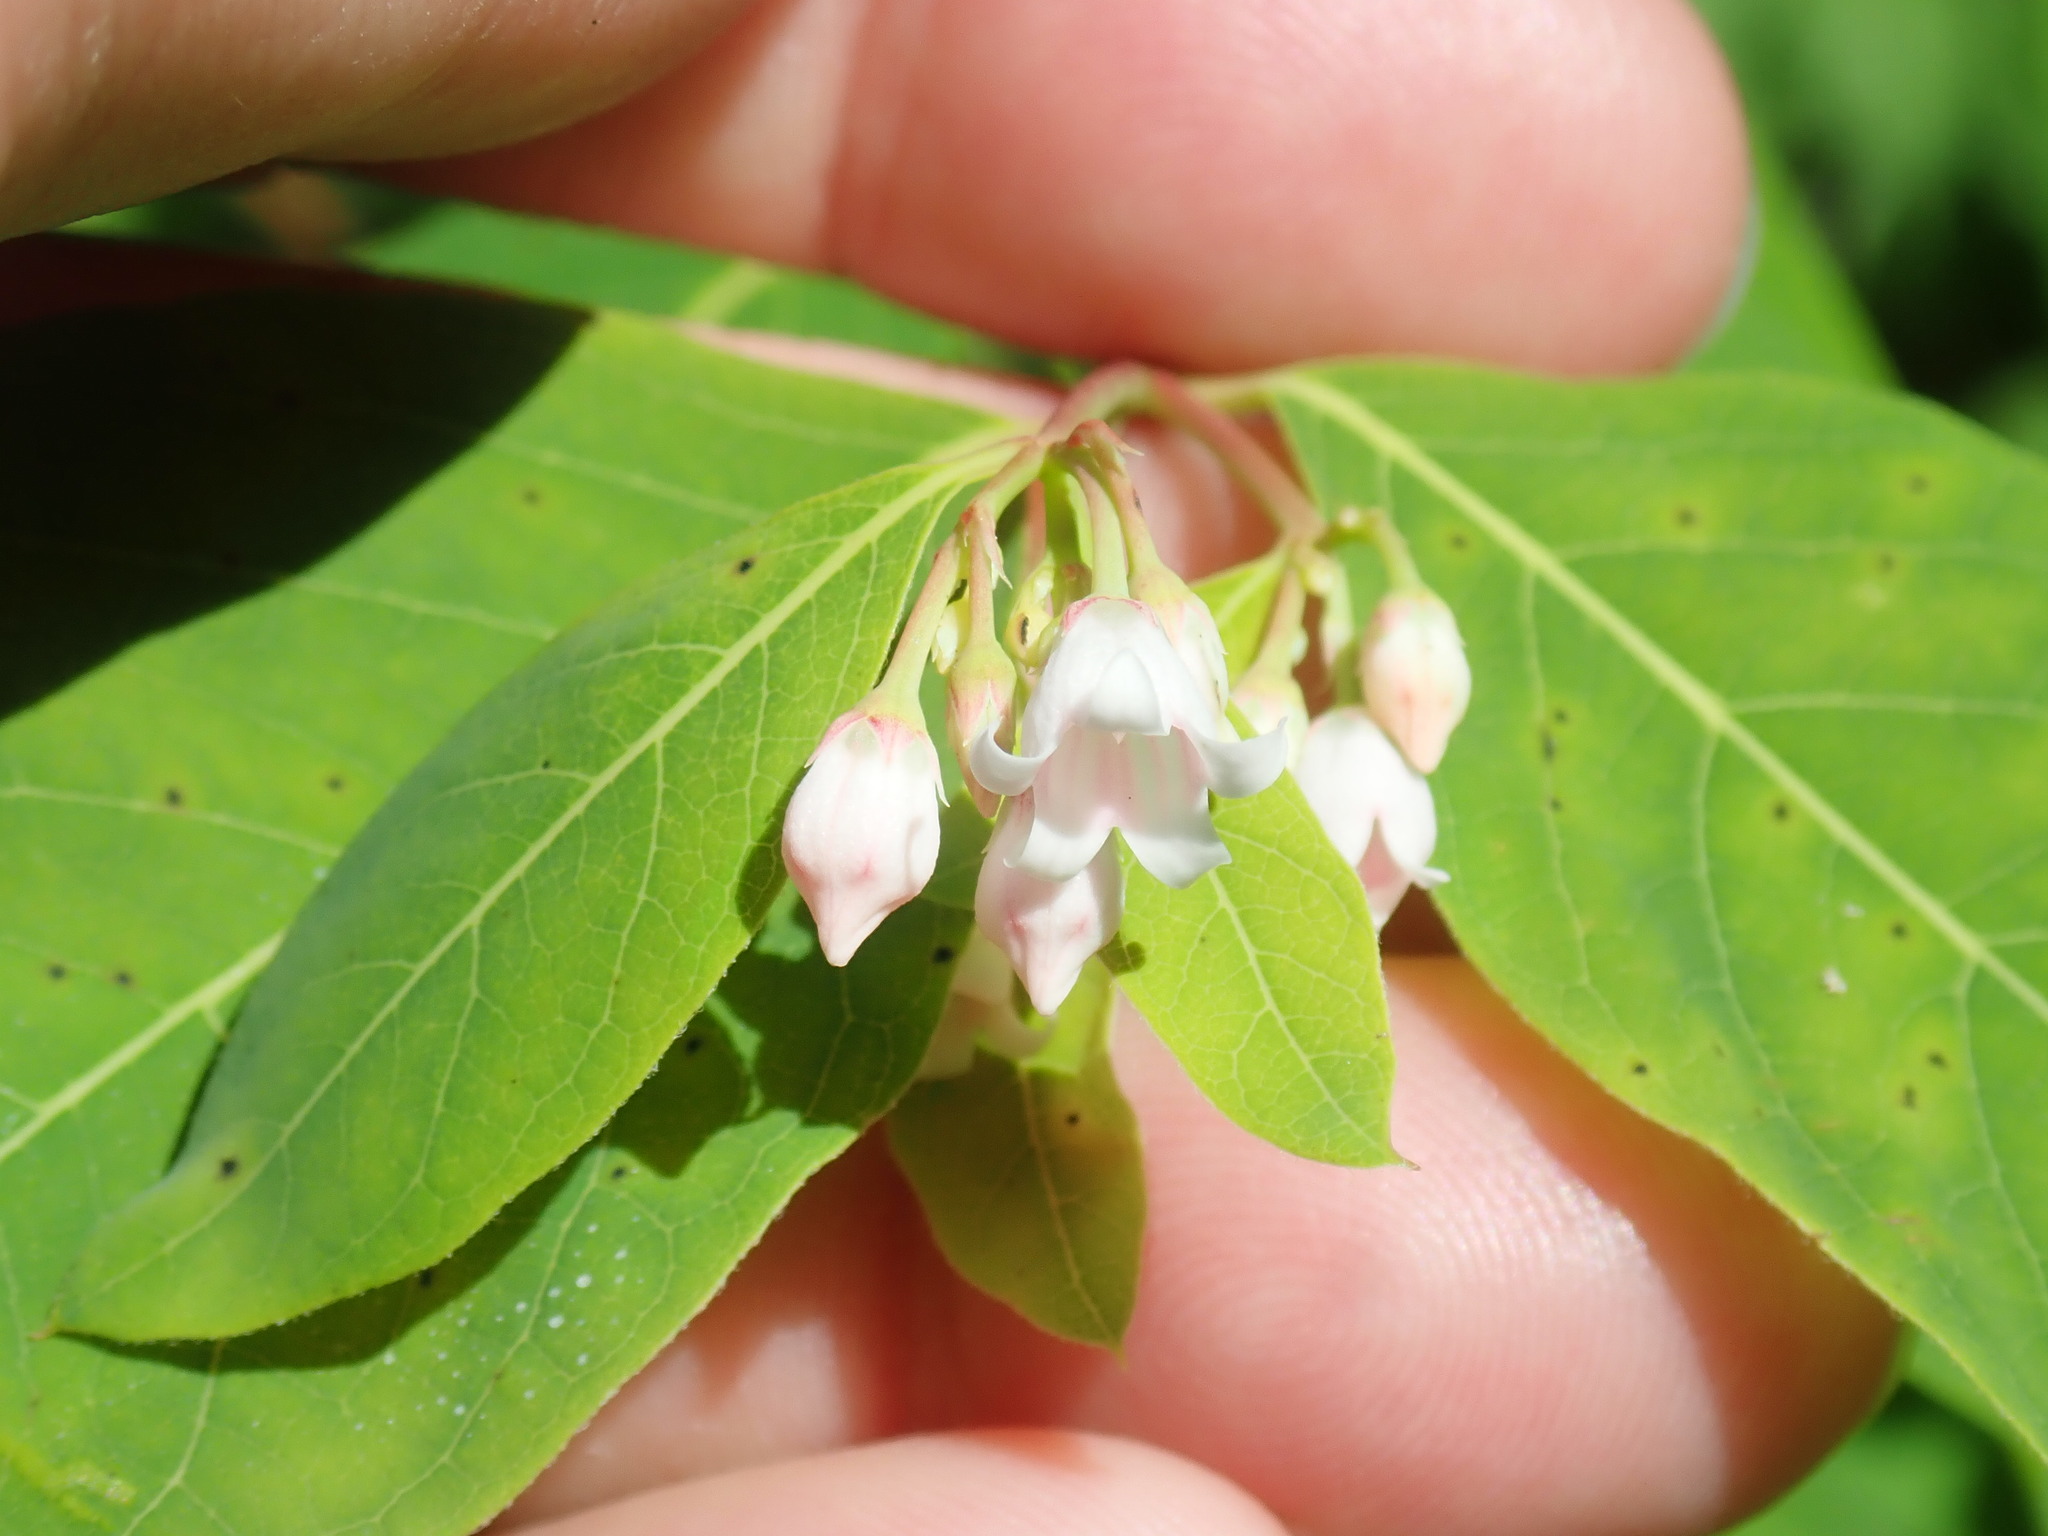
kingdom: Plantae
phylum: Tracheophyta
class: Magnoliopsida
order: Gentianales
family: Apocynaceae
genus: Apocynum
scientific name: Apocynum androsaemifolium
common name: Spreading dogbane
